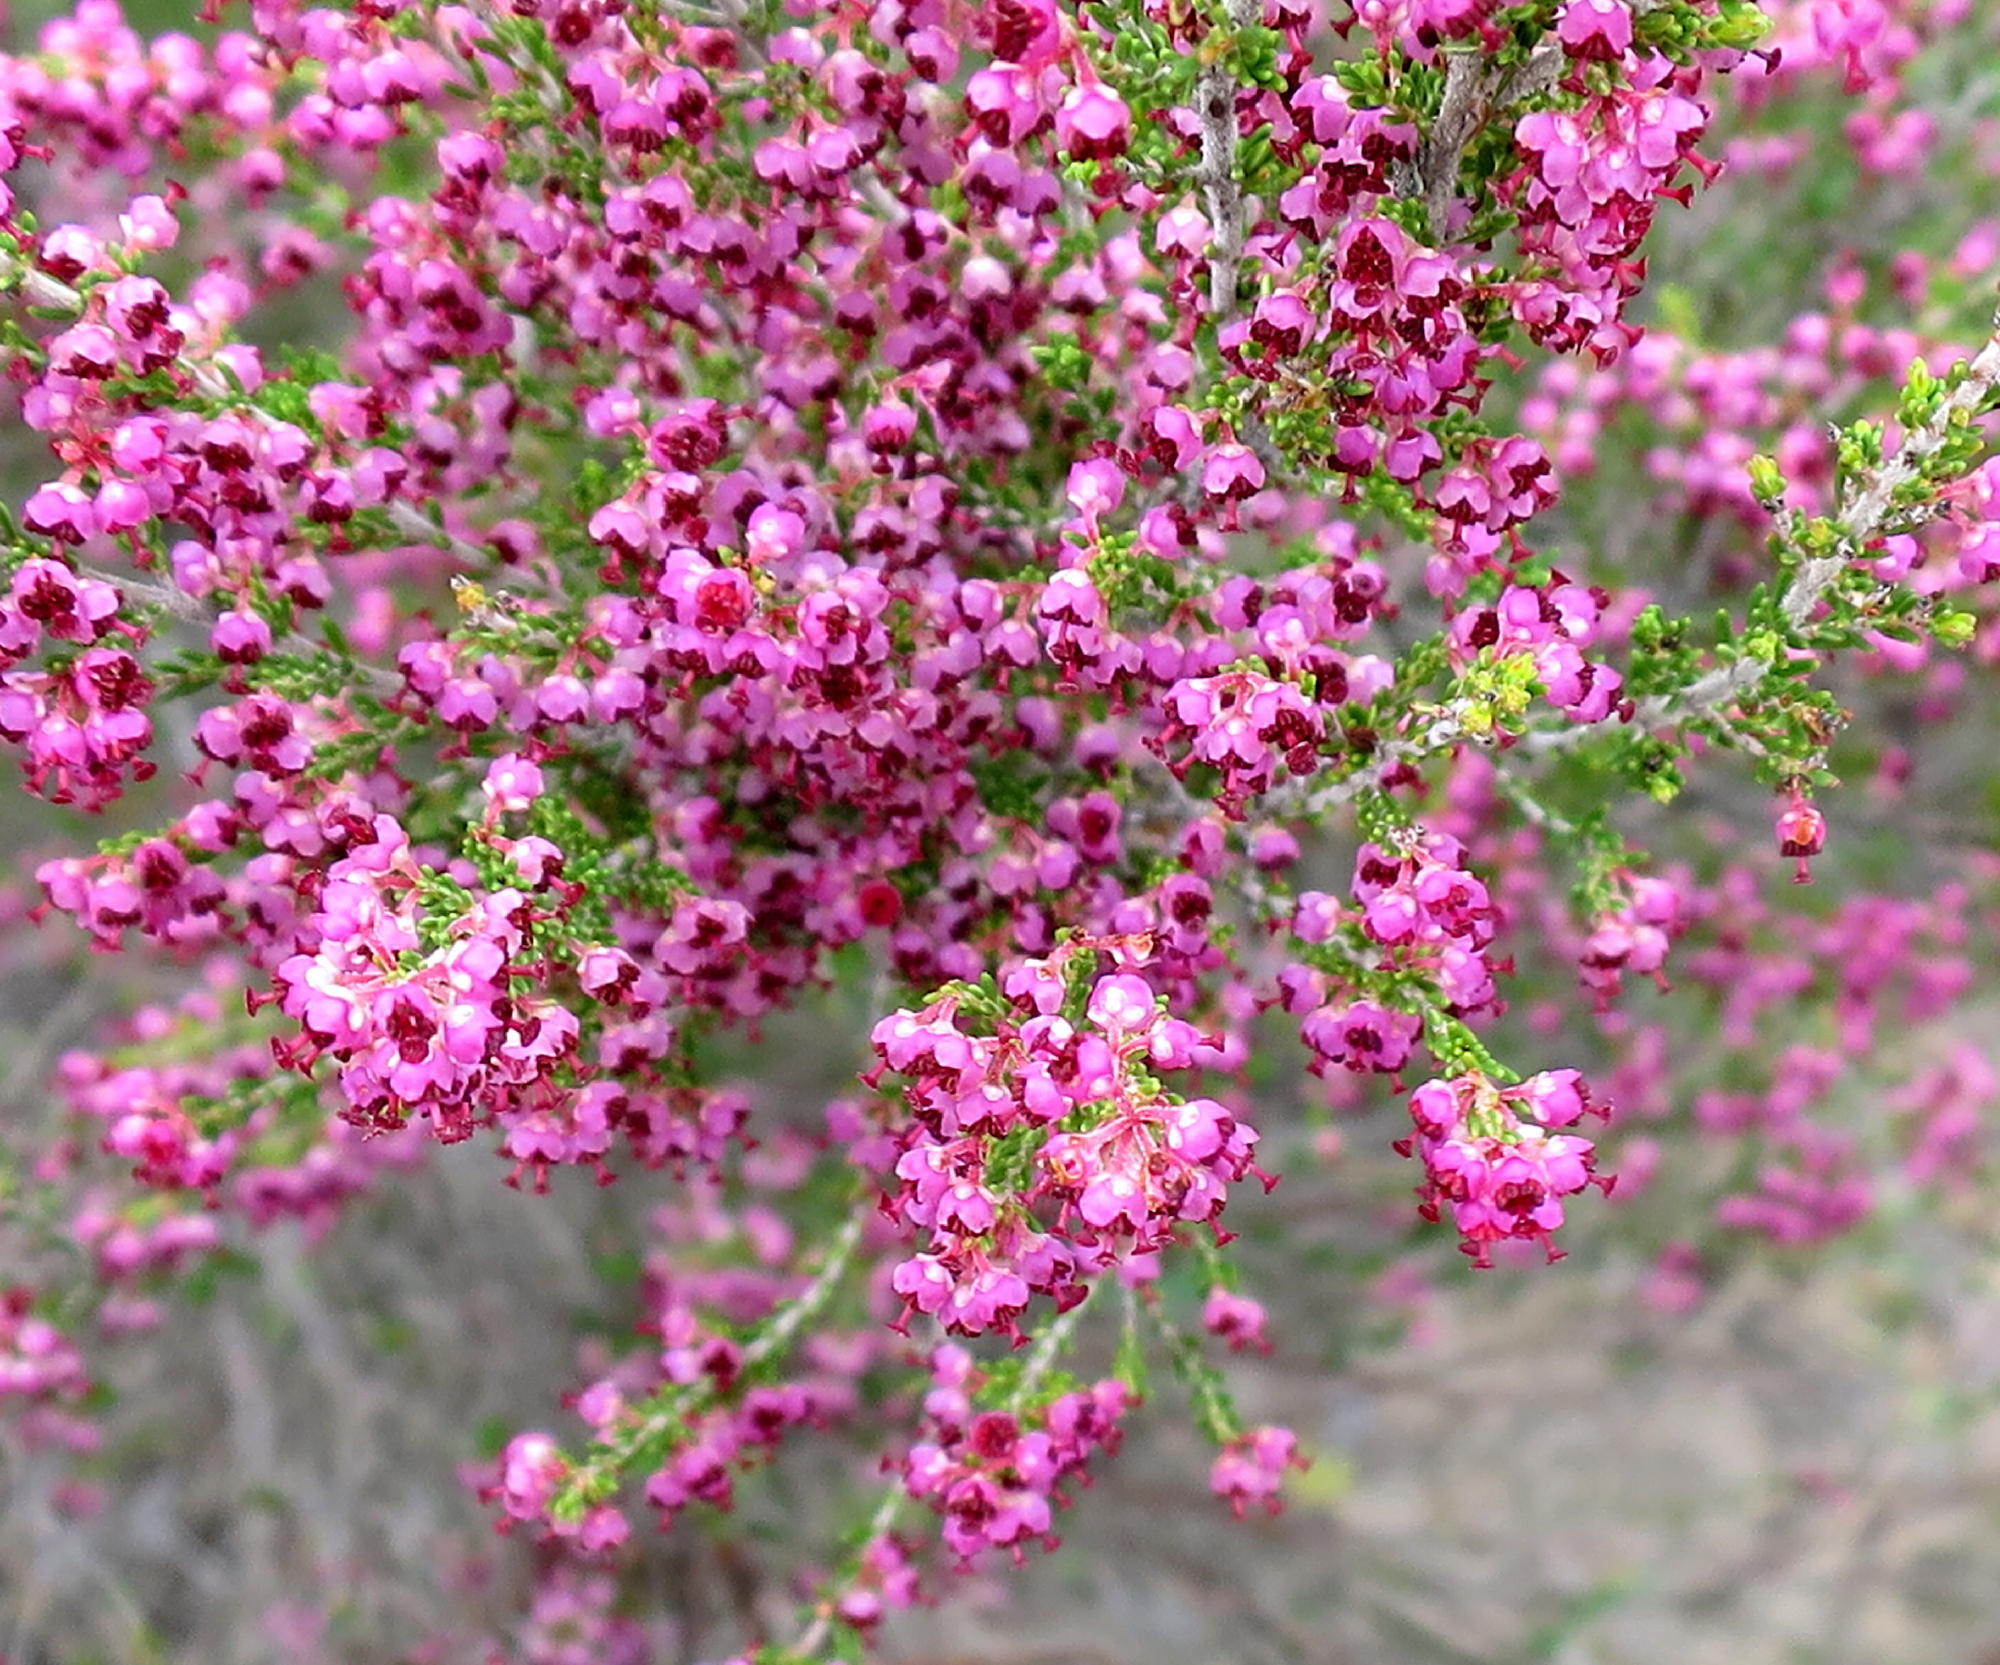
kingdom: Plantae
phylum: Tracheophyta
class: Magnoliopsida
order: Ericales
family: Ericaceae
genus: Erica
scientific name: Erica peltata
